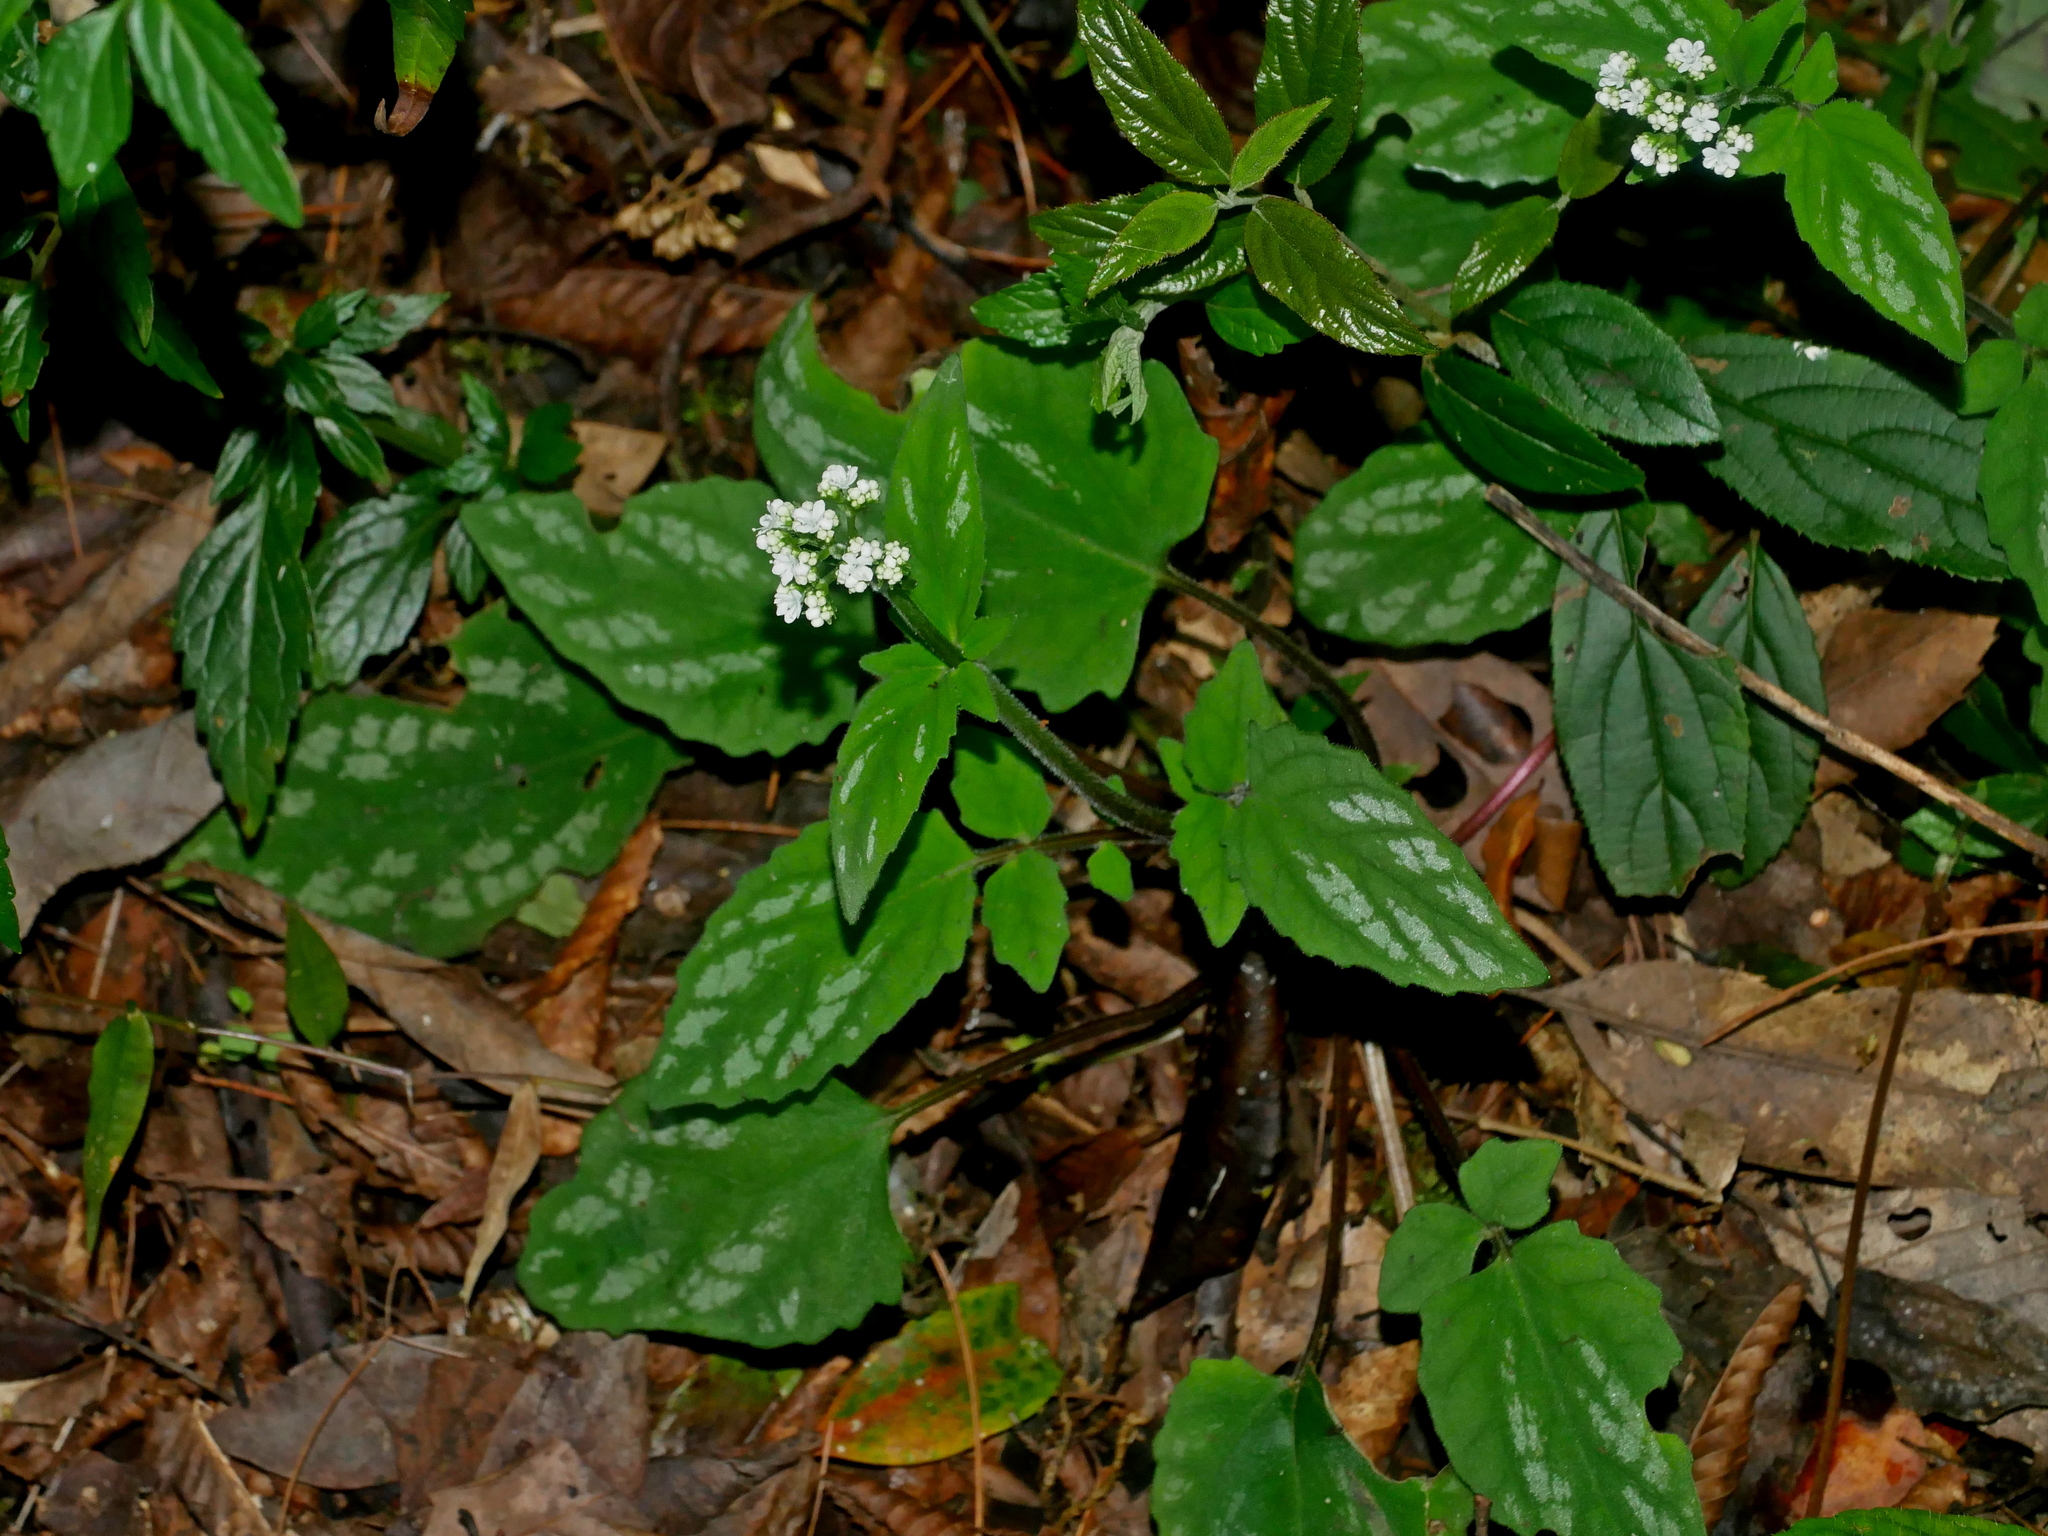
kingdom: Plantae
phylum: Tracheophyta
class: Magnoliopsida
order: Dipsacales
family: Caprifoliaceae
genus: Valeriana
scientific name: Valeriana hsui
